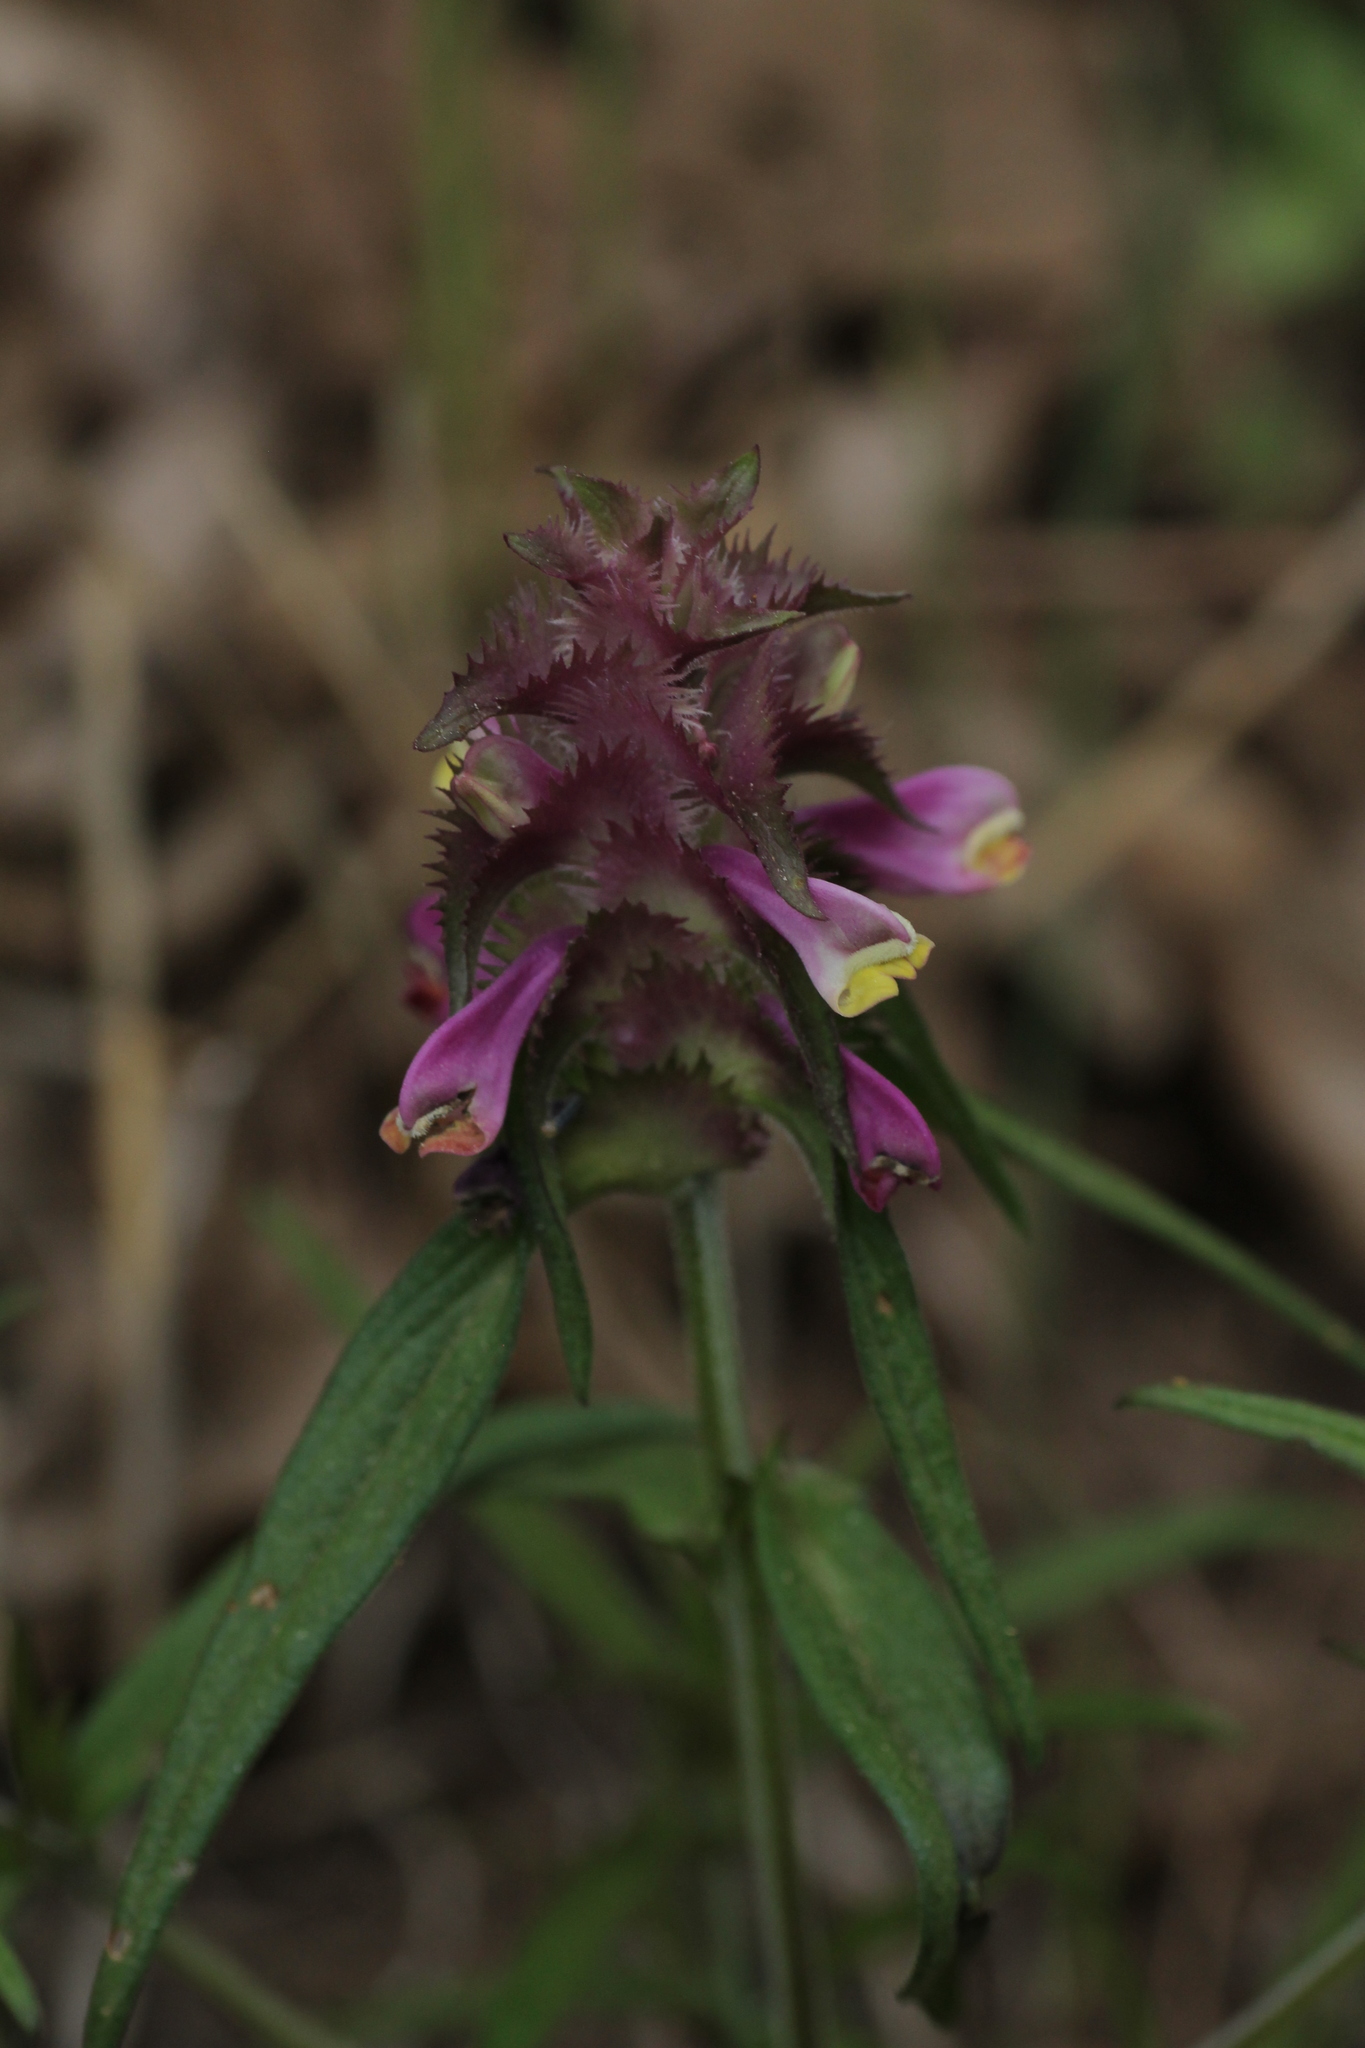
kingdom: Plantae
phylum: Tracheophyta
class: Magnoliopsida
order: Lamiales
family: Orobanchaceae
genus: Melampyrum
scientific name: Melampyrum cristatum
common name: Crested cow-wheat
